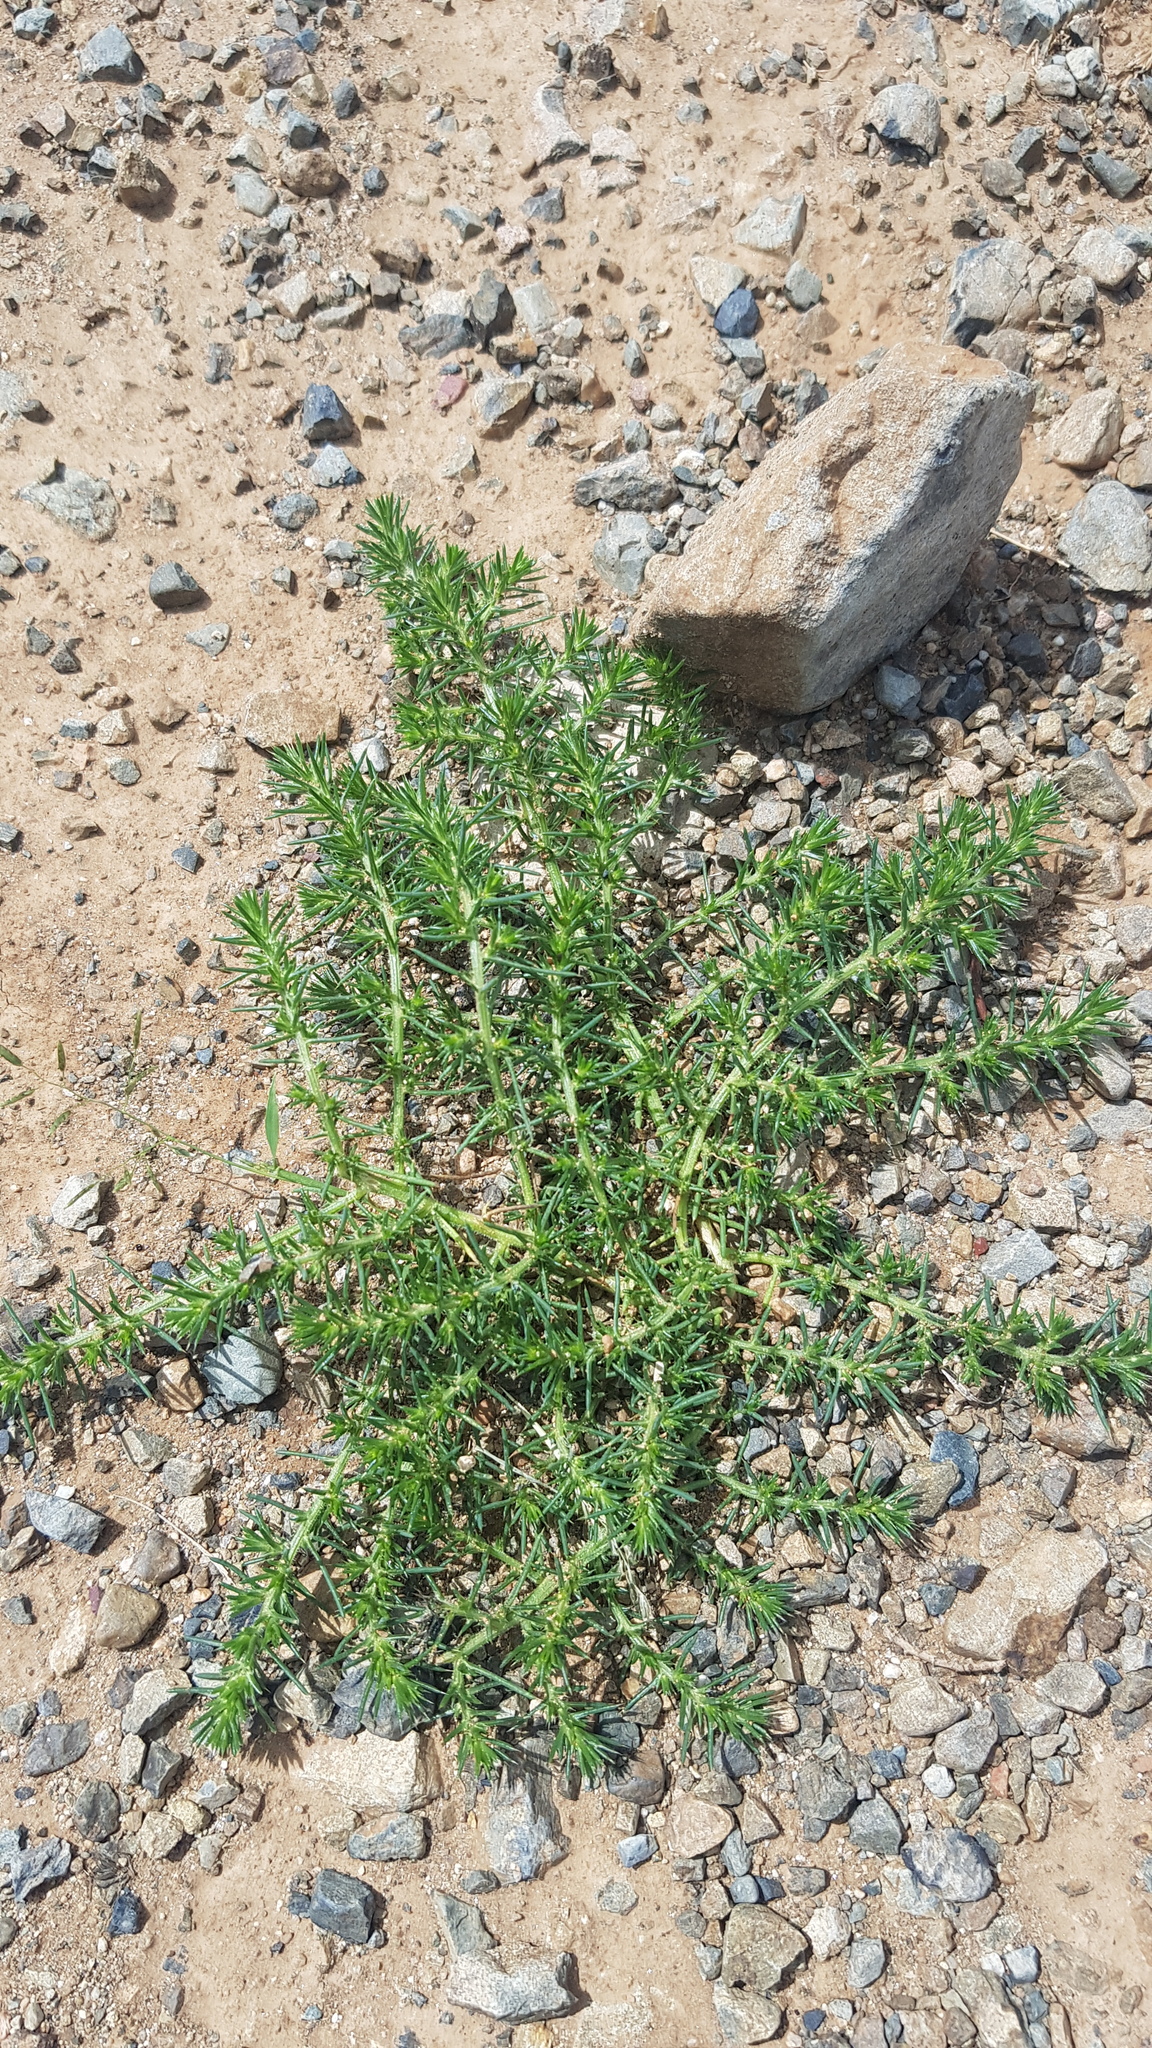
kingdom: Plantae
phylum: Tracheophyta
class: Magnoliopsida
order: Caryophyllales
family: Amaranthaceae
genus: Salsola
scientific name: Salsola collina
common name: Tumbleweed
